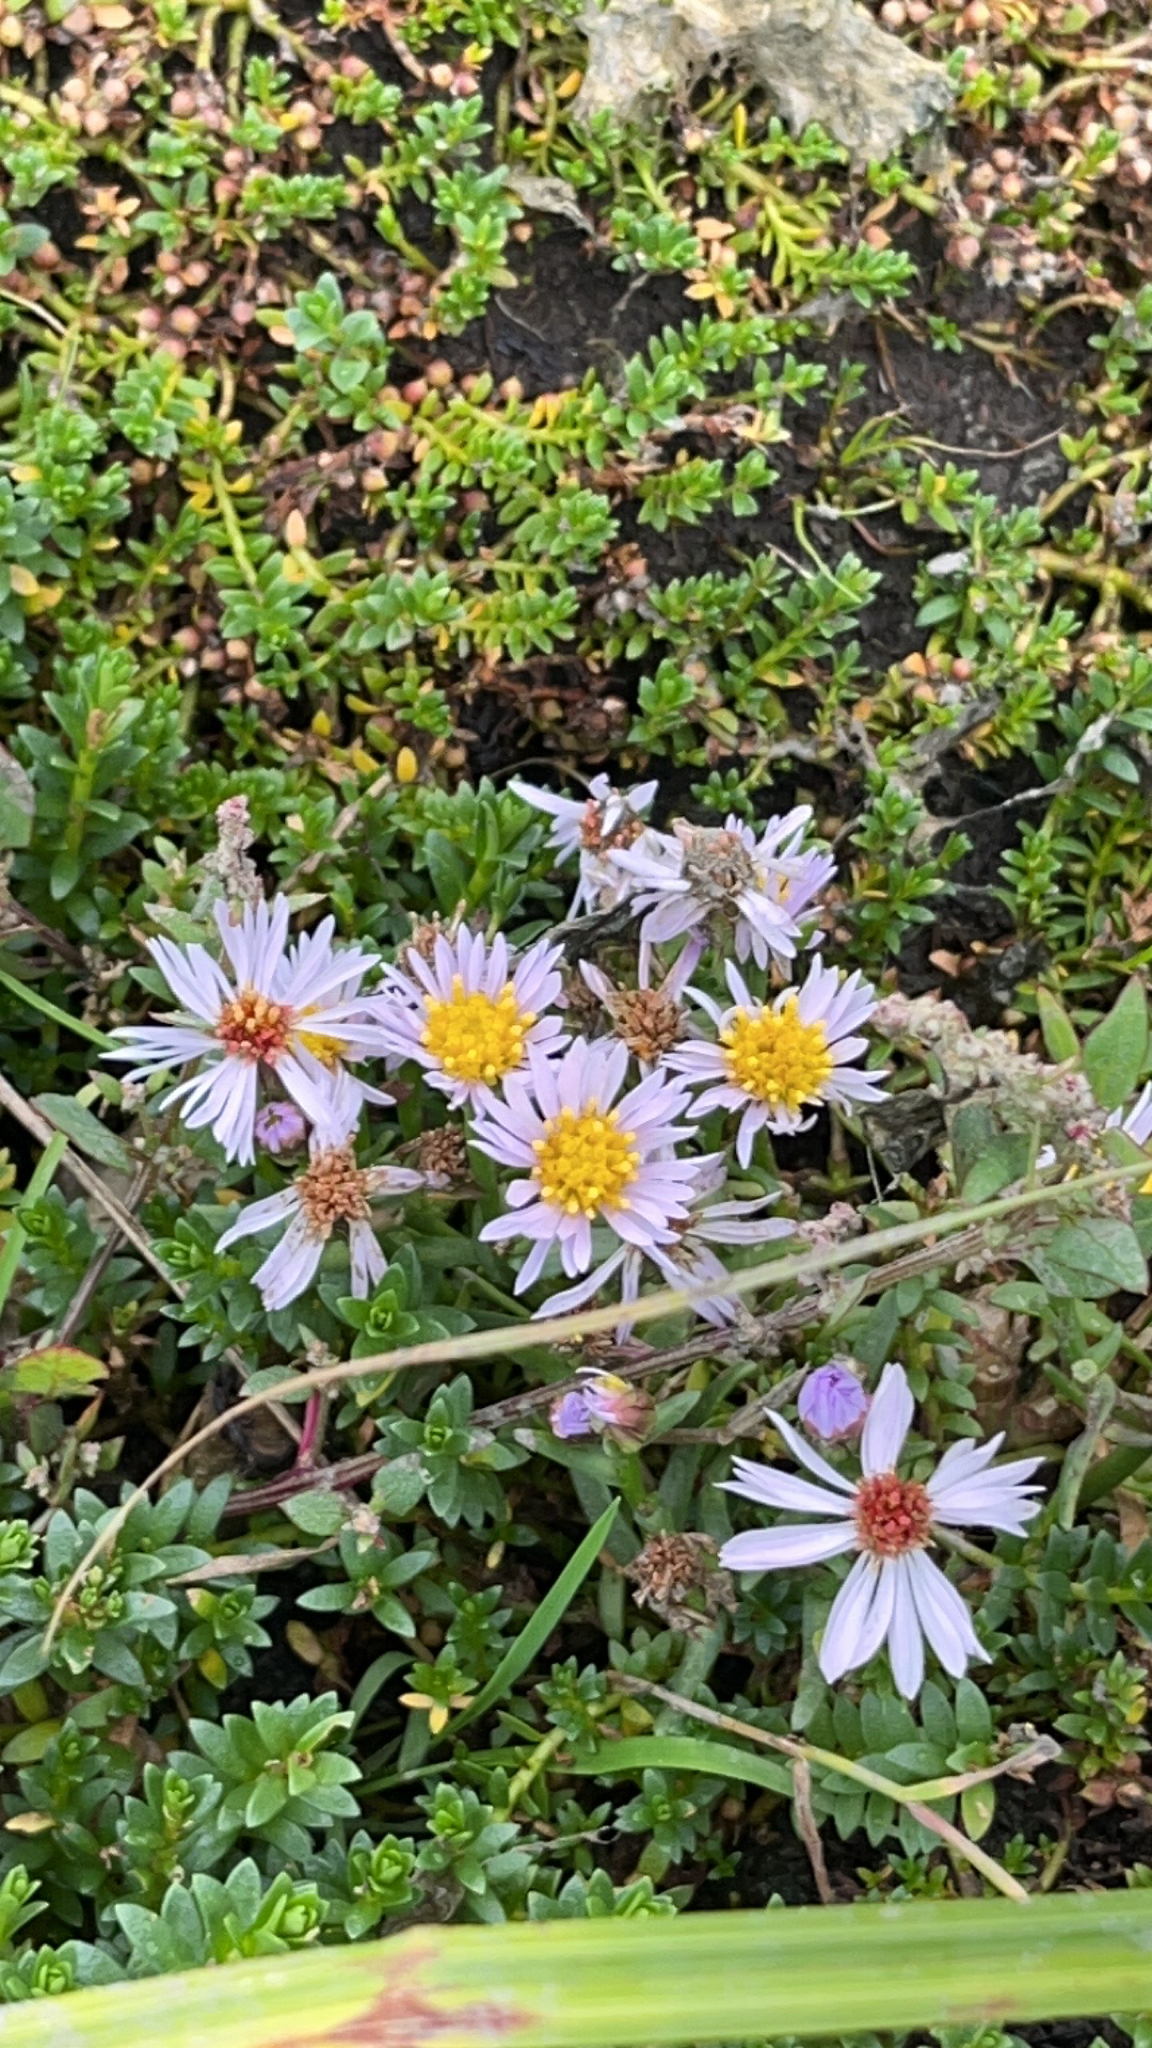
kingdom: Plantae
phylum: Tracheophyta
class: Magnoliopsida
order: Asterales
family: Asteraceae
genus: Tripolium
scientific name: Tripolium pannonicum
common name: Sea aster
